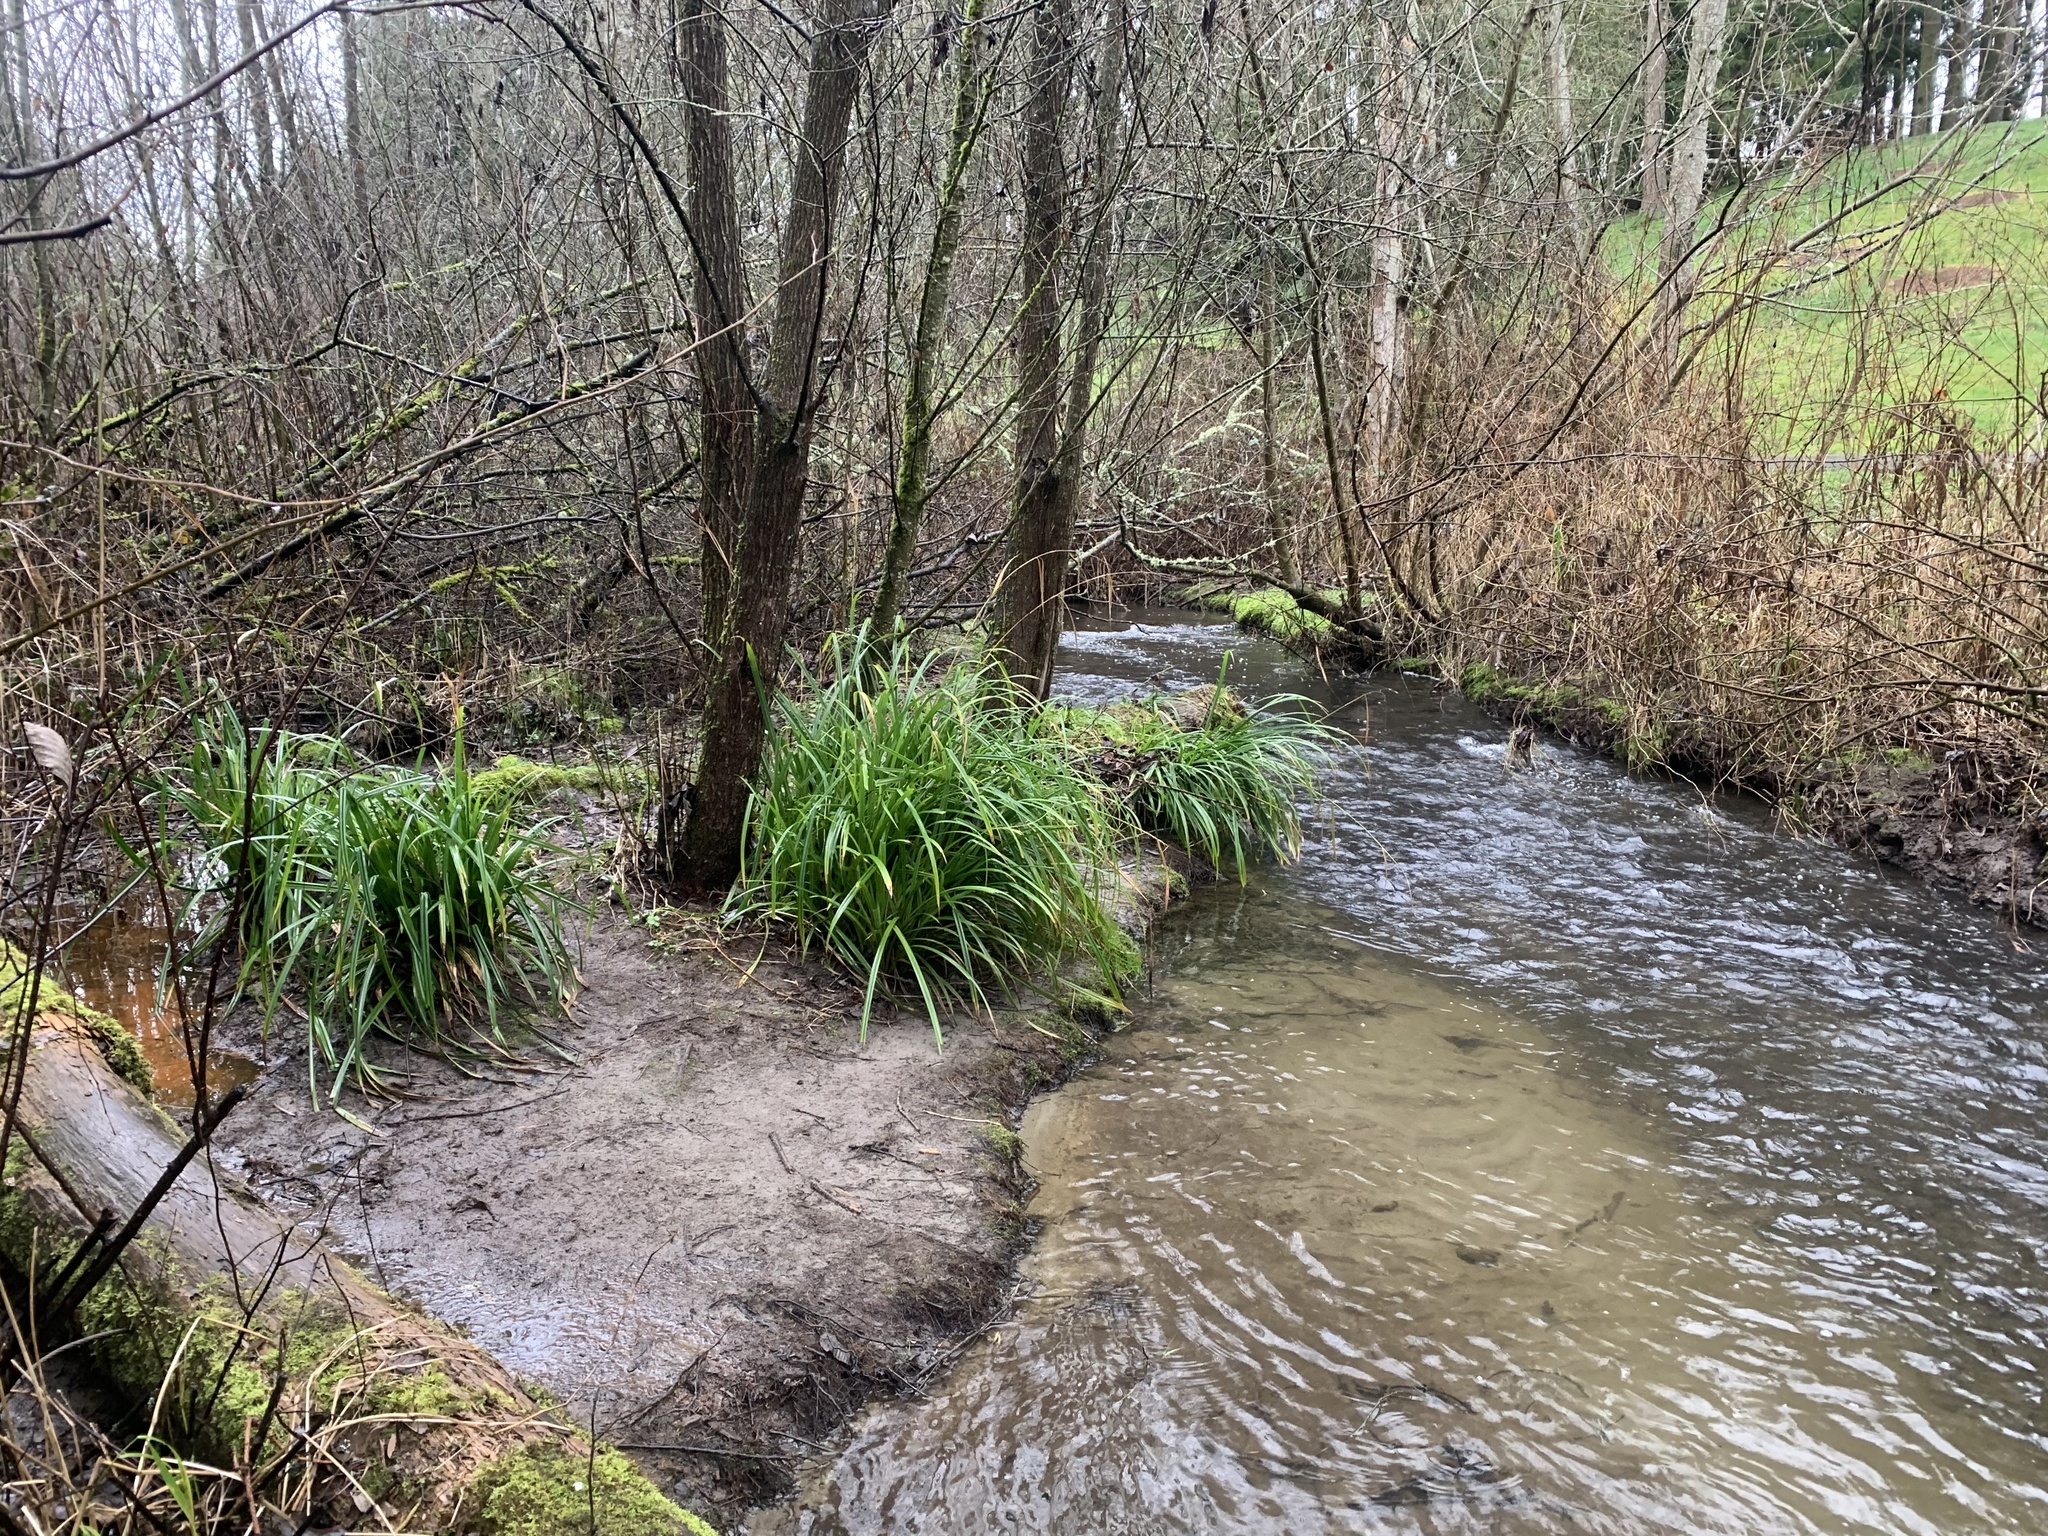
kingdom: Plantae
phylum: Tracheophyta
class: Liliopsida
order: Poales
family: Cyperaceae
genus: Carex
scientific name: Carex pendula
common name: Pendulous sedge
